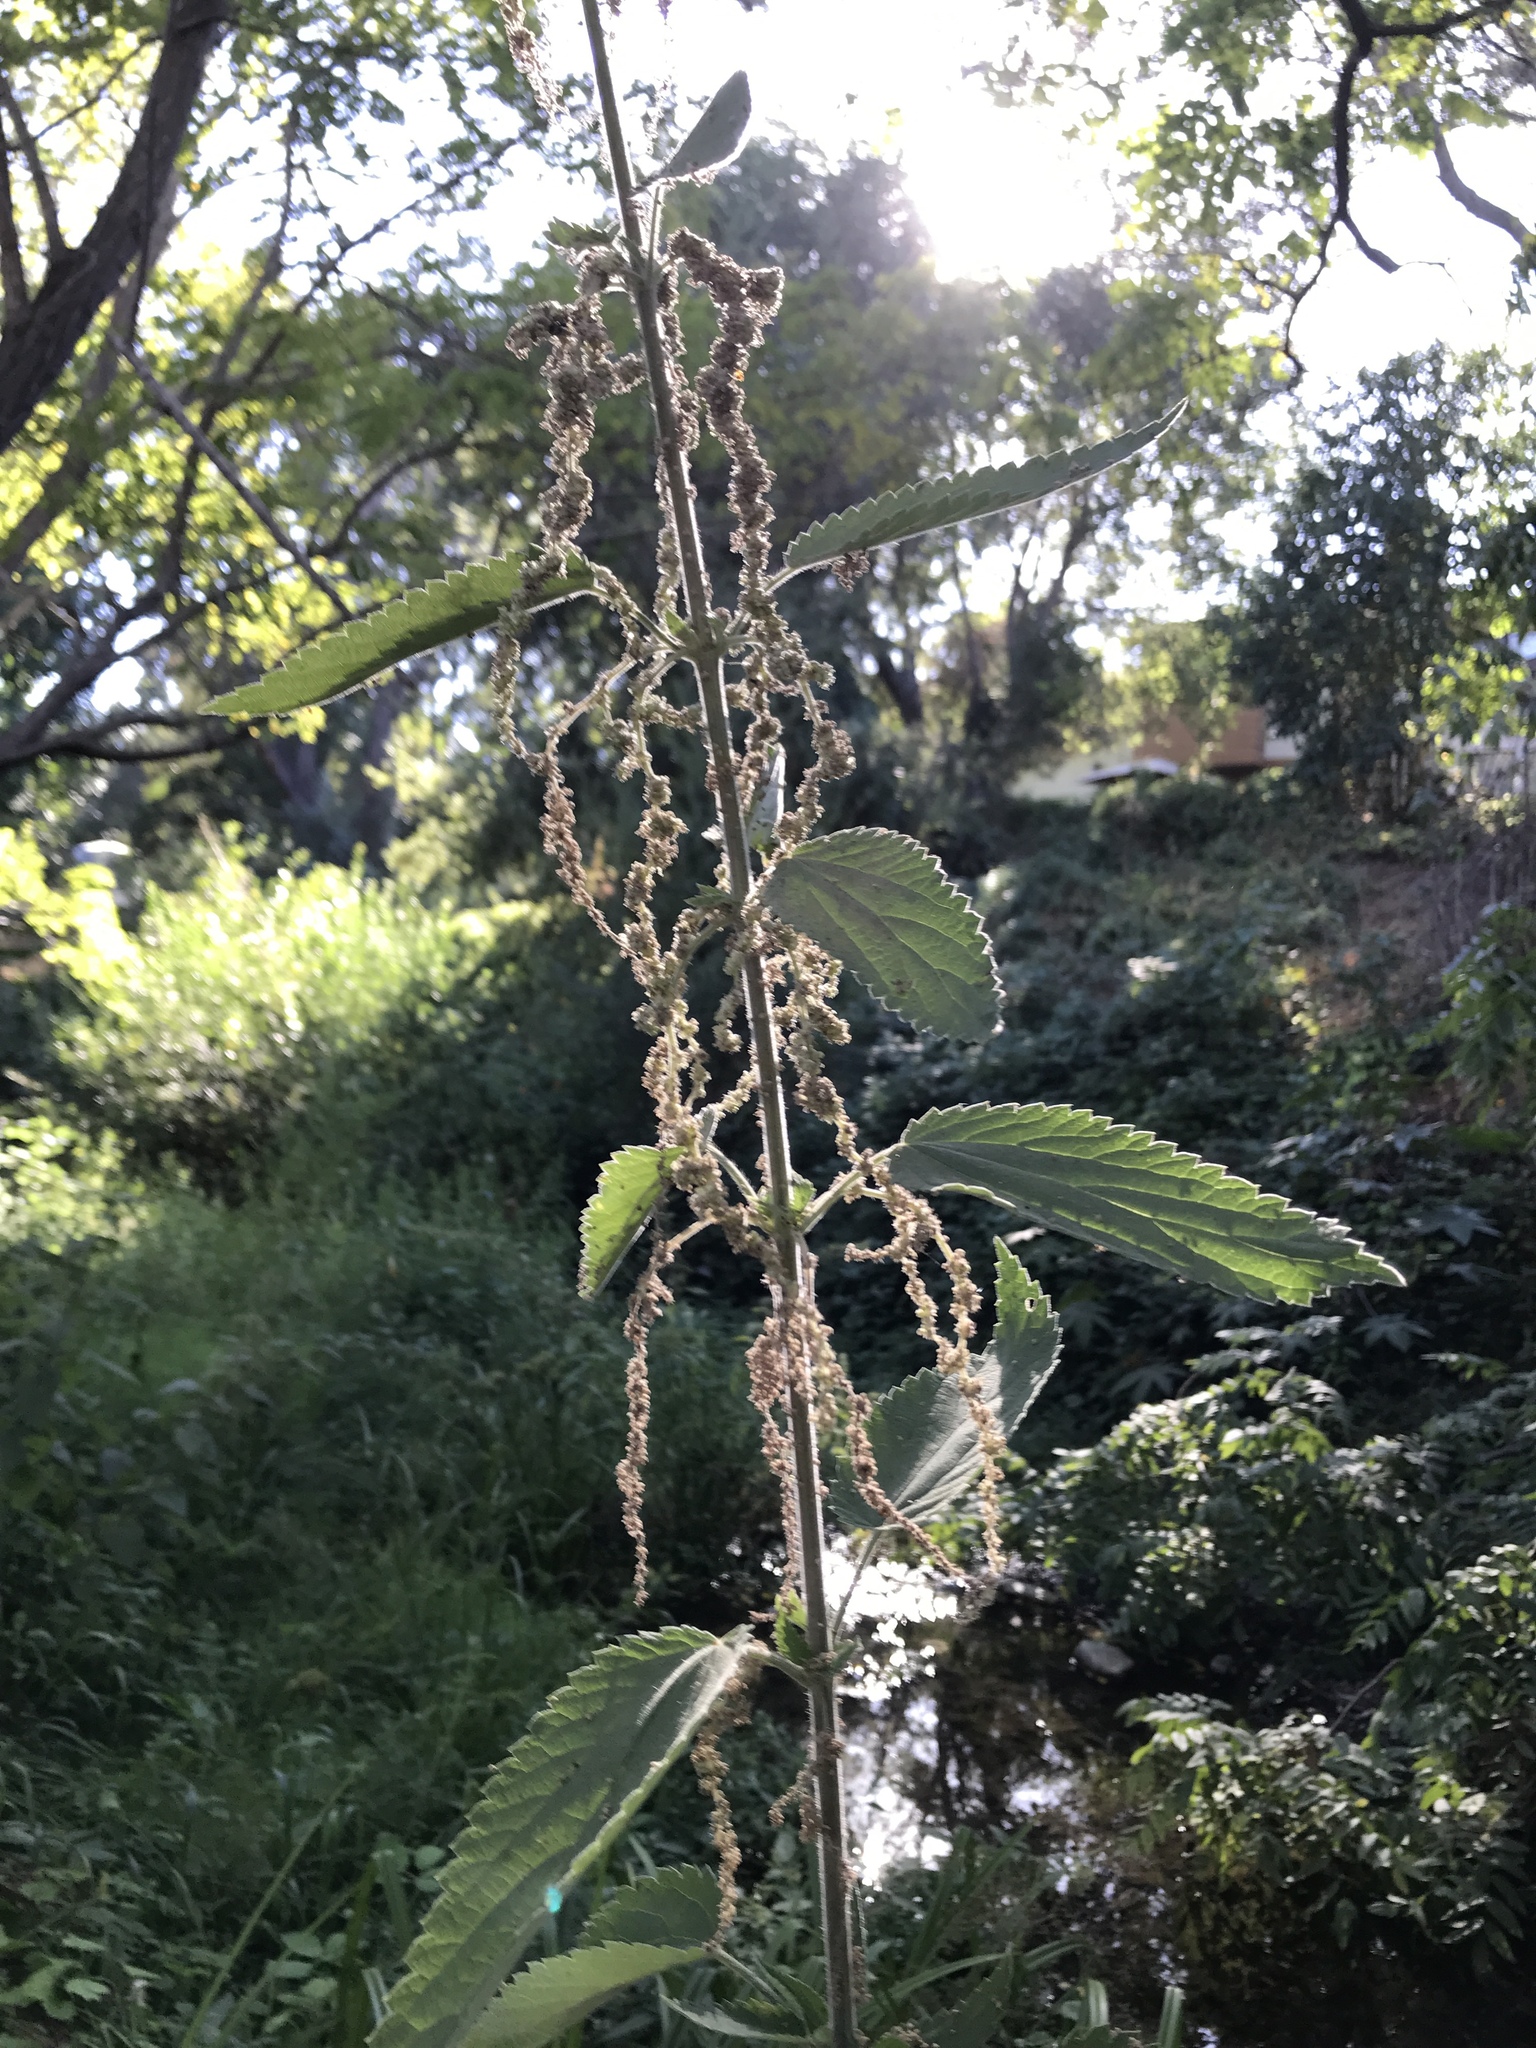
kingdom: Plantae
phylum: Tracheophyta
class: Magnoliopsida
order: Rosales
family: Urticaceae
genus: Urtica
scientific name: Urtica dioica
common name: Common nettle
